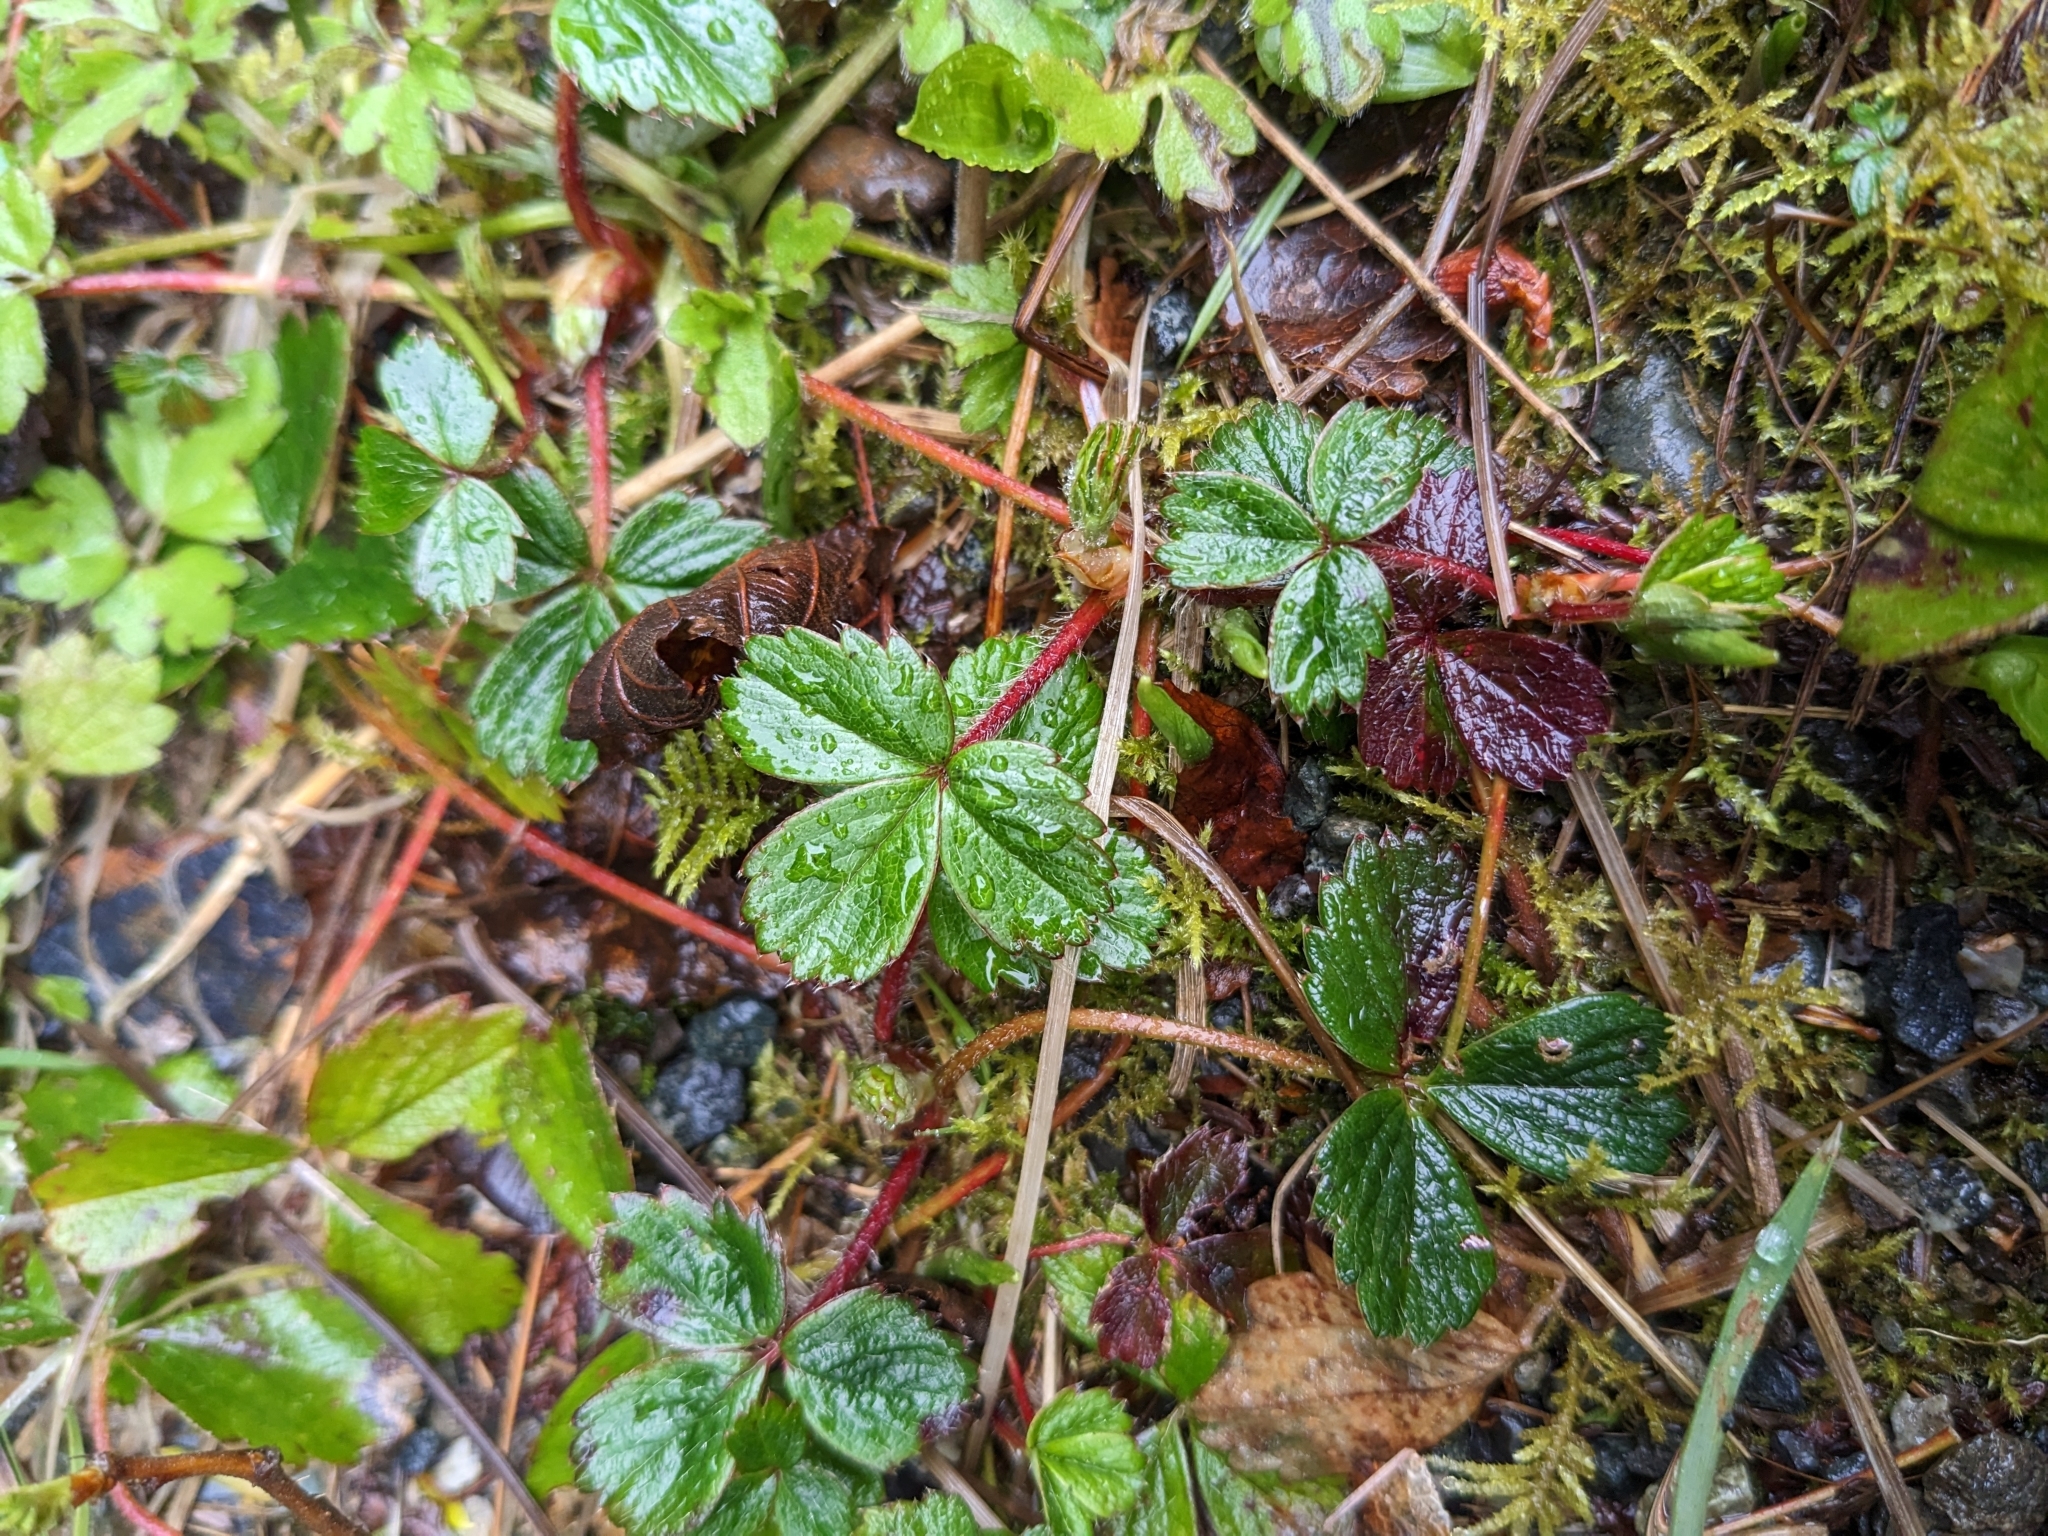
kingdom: Plantae
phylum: Tracheophyta
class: Magnoliopsida
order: Rosales
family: Rosaceae
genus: Fragaria
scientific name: Fragaria chiloensis
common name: Beach strawberry
